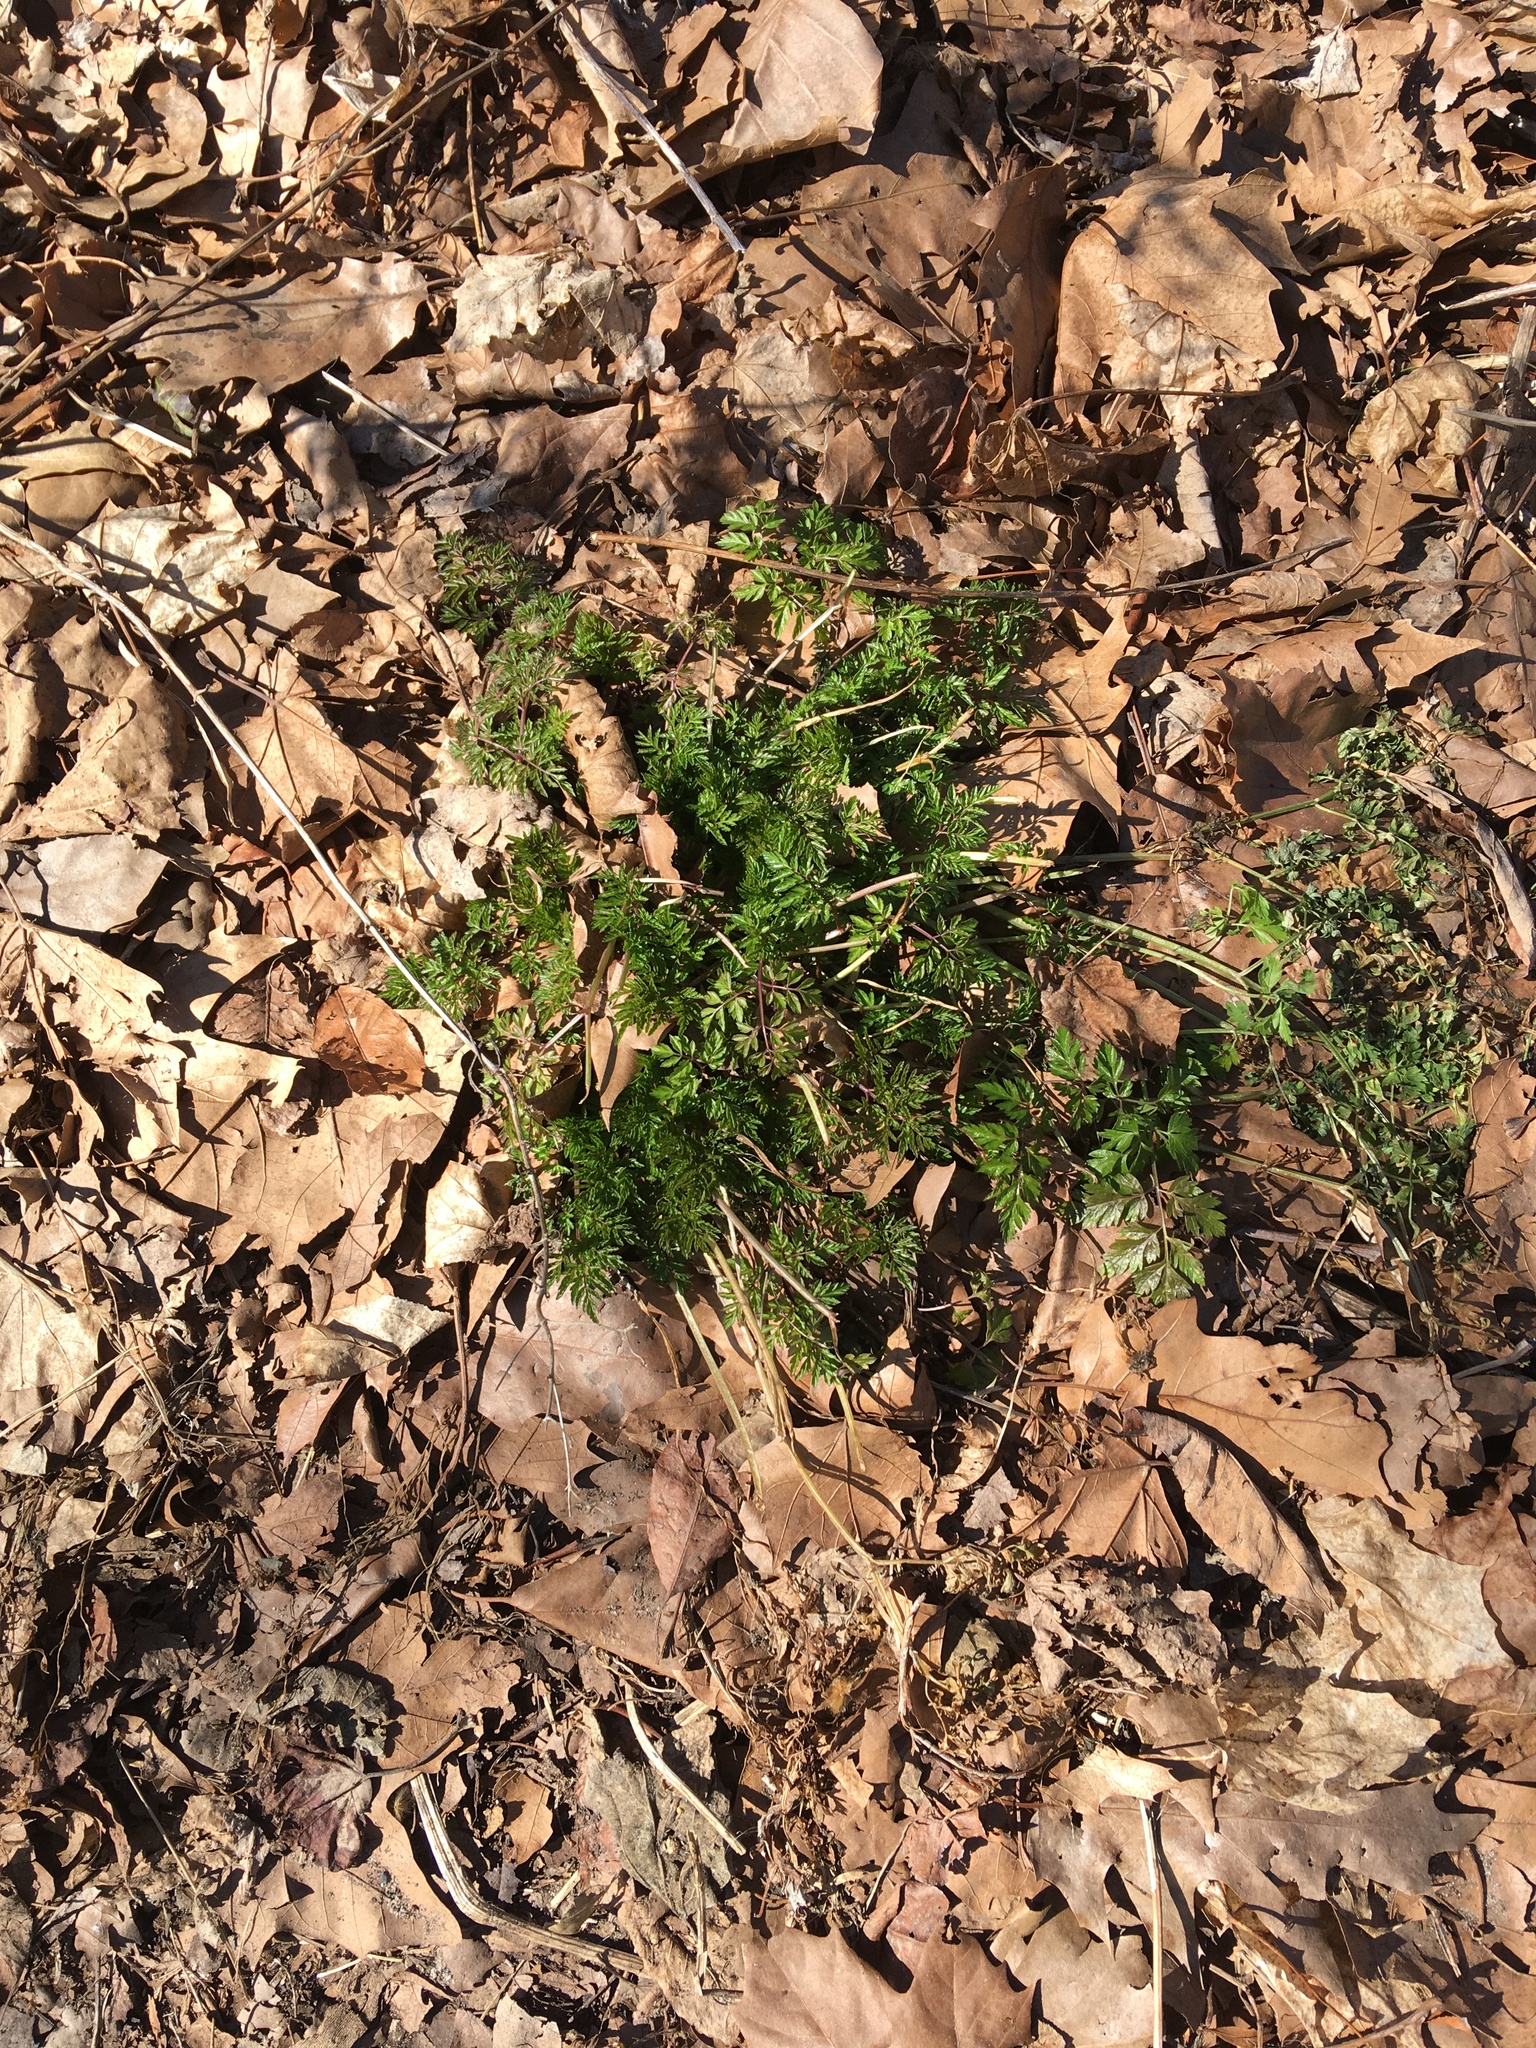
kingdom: Plantae
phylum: Tracheophyta
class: Magnoliopsida
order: Apiales
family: Apiaceae
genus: Anthriscus
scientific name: Anthriscus sylvestris
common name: Cow parsley
